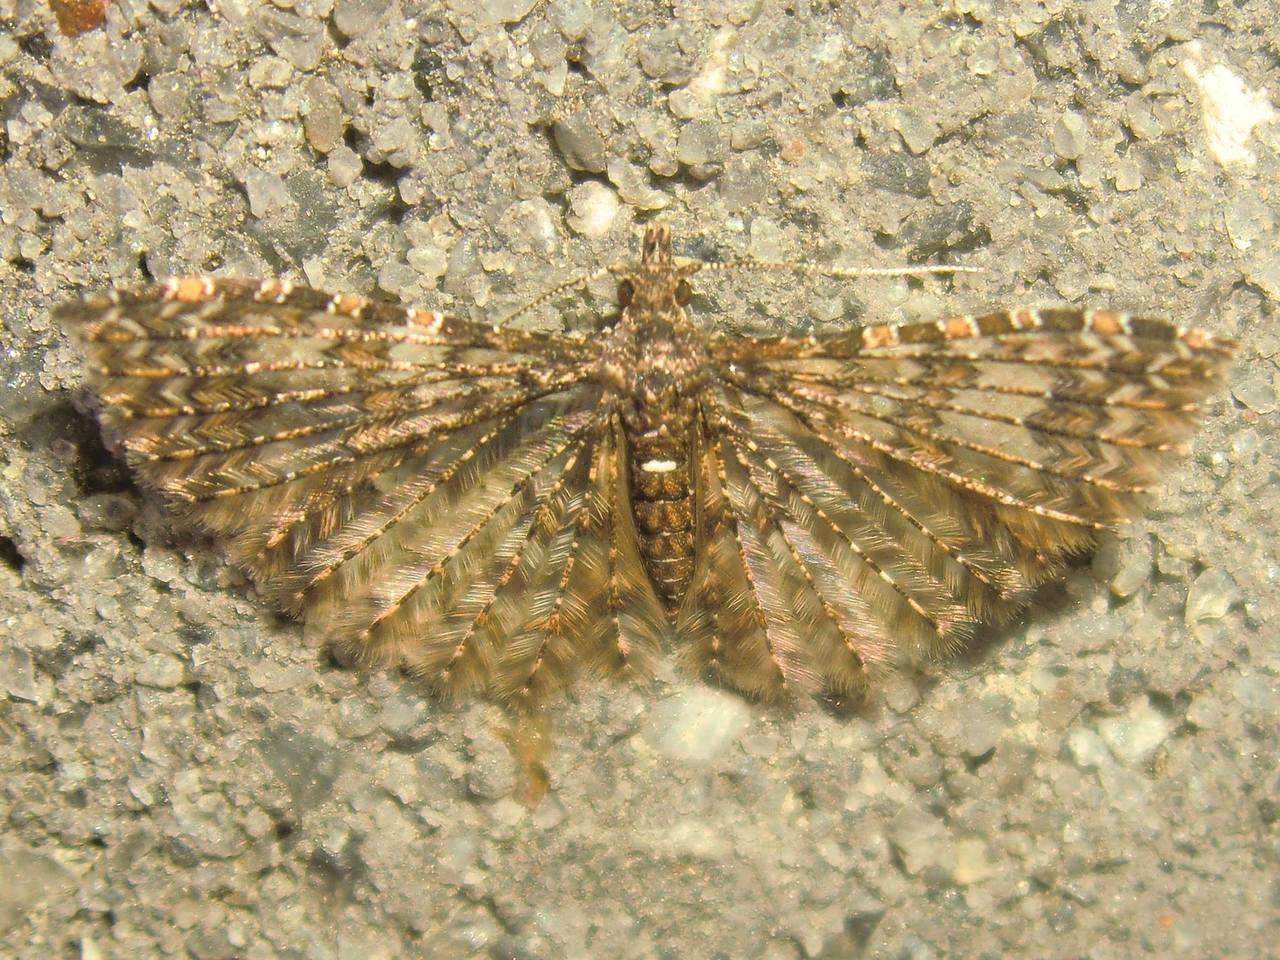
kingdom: Animalia
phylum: Arthropoda
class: Insecta
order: Lepidoptera
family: Alucitidae
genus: Alucita
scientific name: Alucita phricodes
